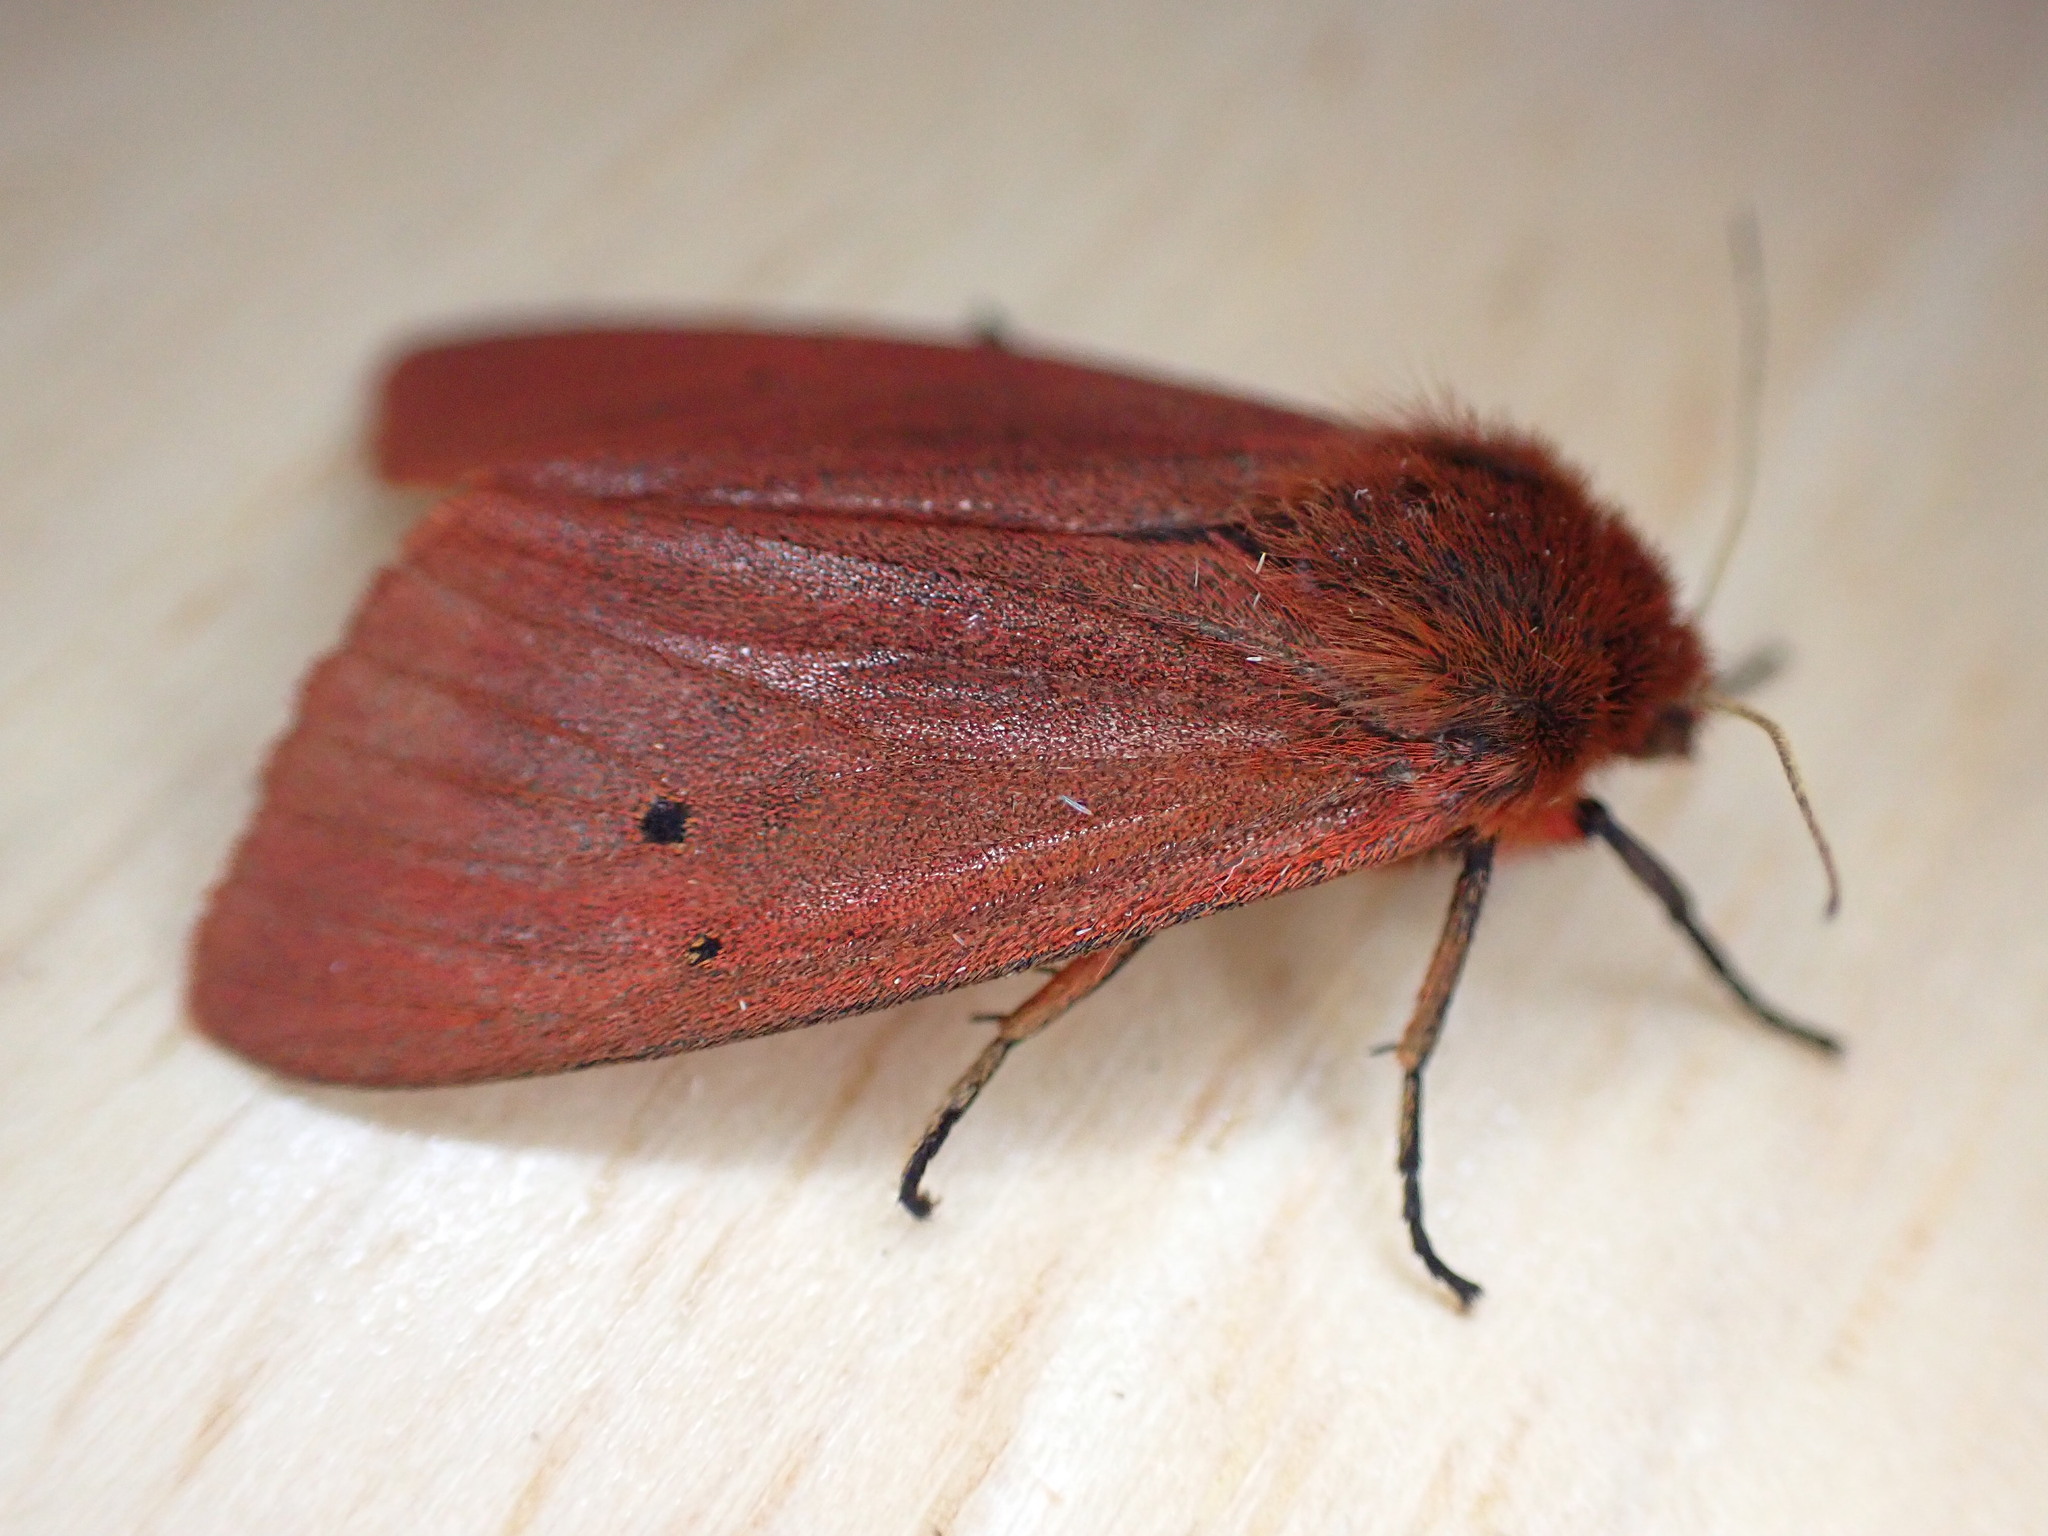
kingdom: Animalia
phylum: Arthropoda
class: Insecta
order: Lepidoptera
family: Erebidae
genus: Phragmatobia
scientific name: Phragmatobia fuliginosa
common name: Ruby tiger
